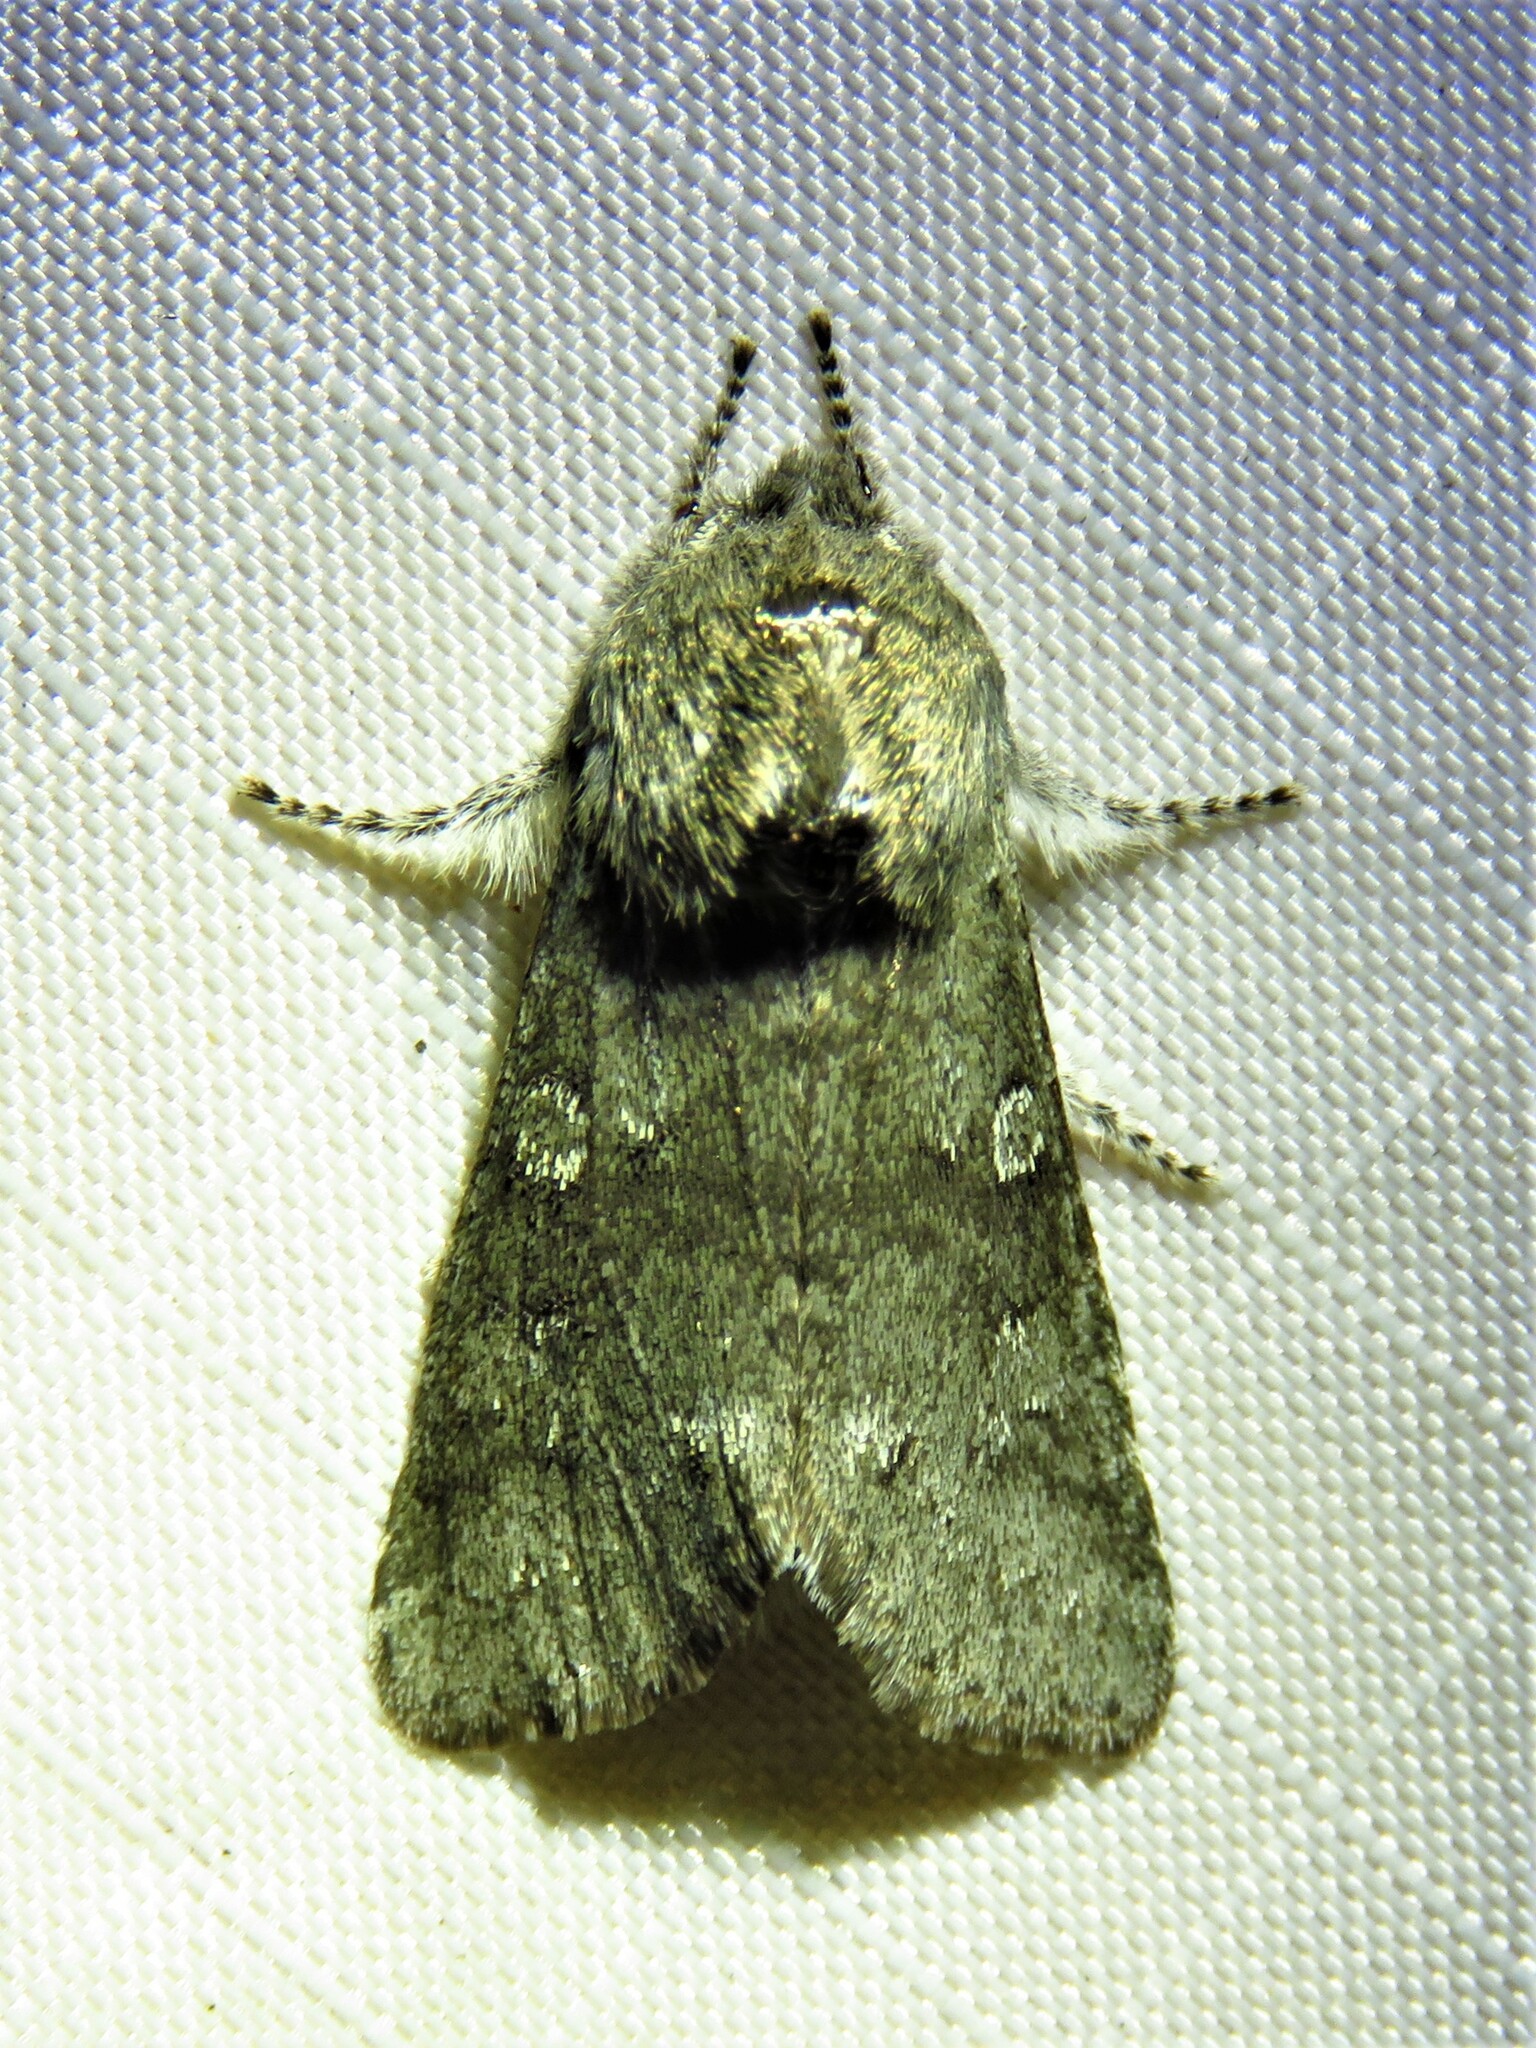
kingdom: Animalia
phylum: Arthropoda
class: Insecta
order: Lepidoptera
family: Noctuidae
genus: Psaphida
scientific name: Psaphida rolandi
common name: Roland's sallow
